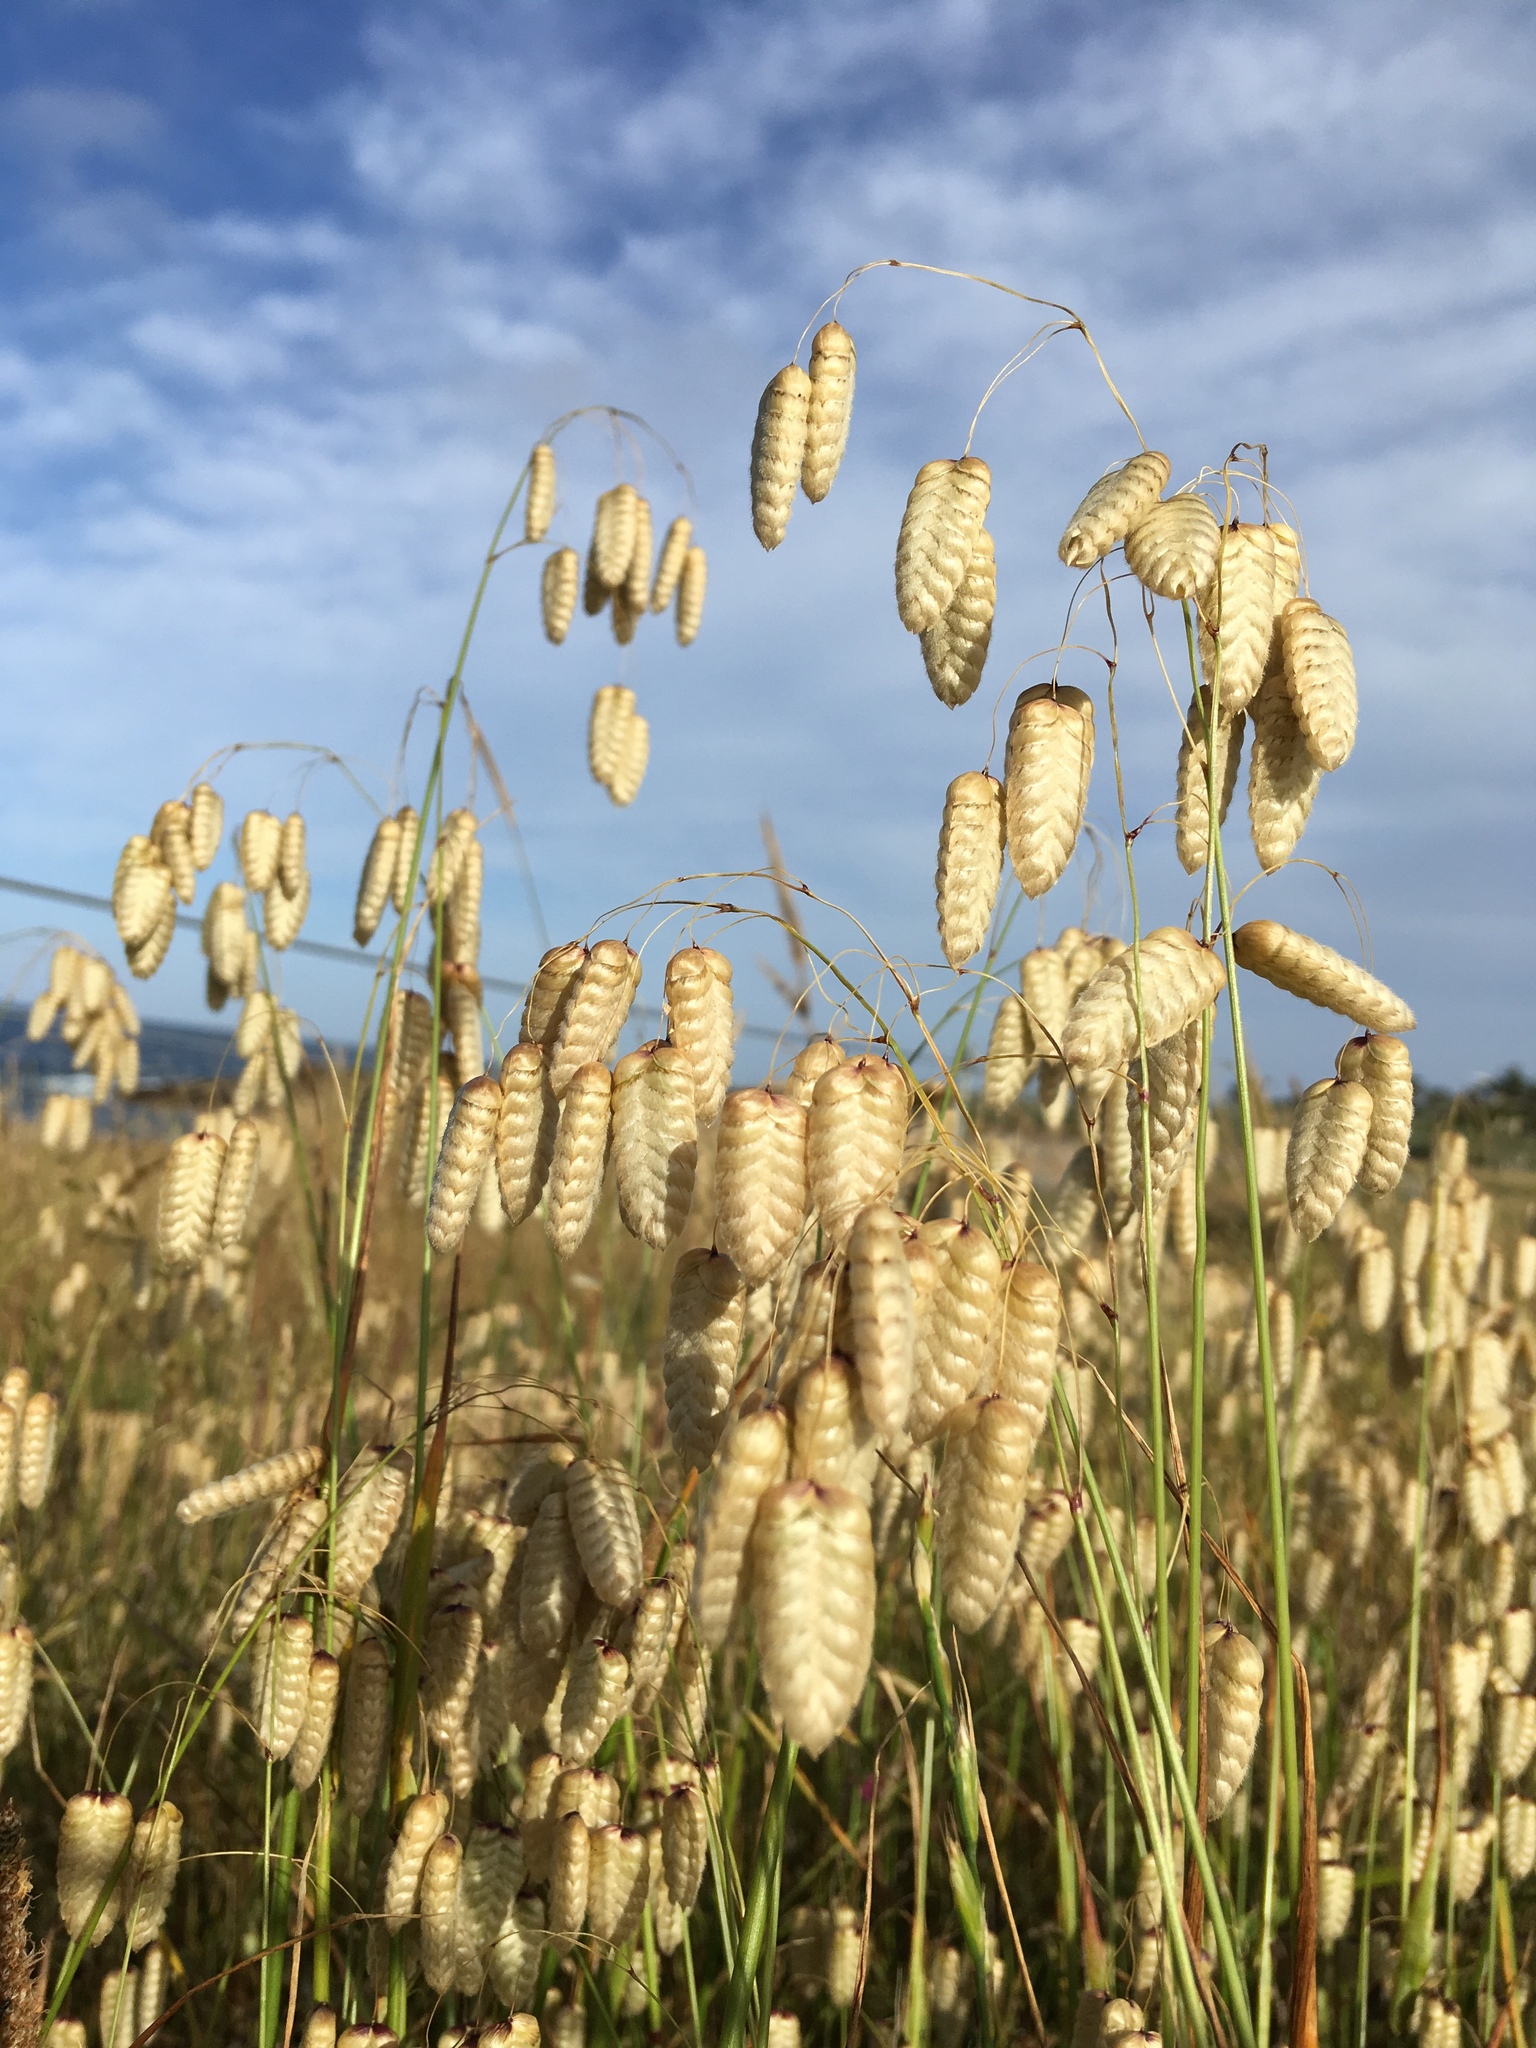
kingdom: Plantae
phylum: Tracheophyta
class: Liliopsida
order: Poales
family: Poaceae
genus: Briza
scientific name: Briza maxima
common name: Big quakinggrass
